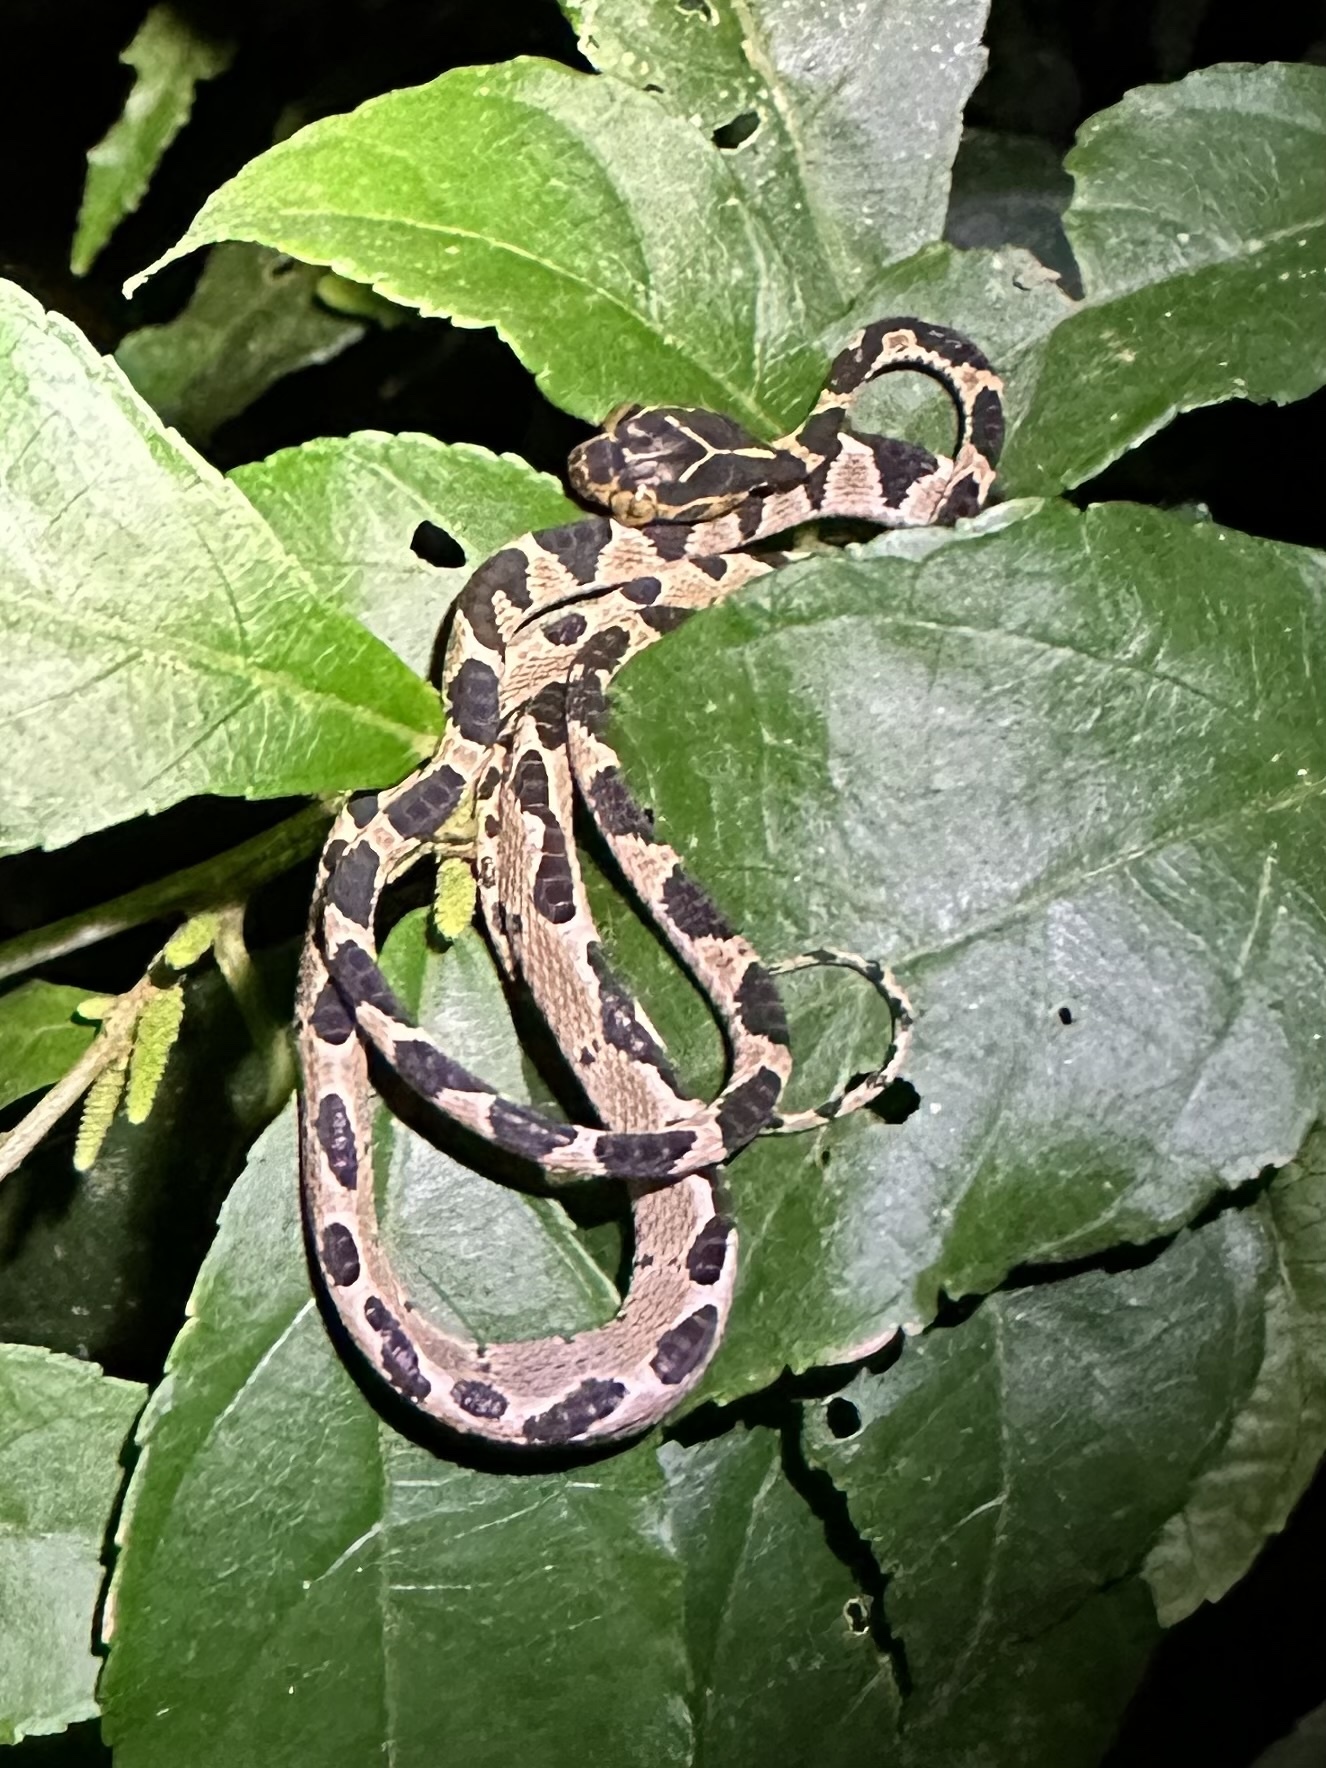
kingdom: Animalia
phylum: Chordata
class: Squamata
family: Colubridae
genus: Imantodes
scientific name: Imantodes cenchoa
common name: Blunthead tree snake
